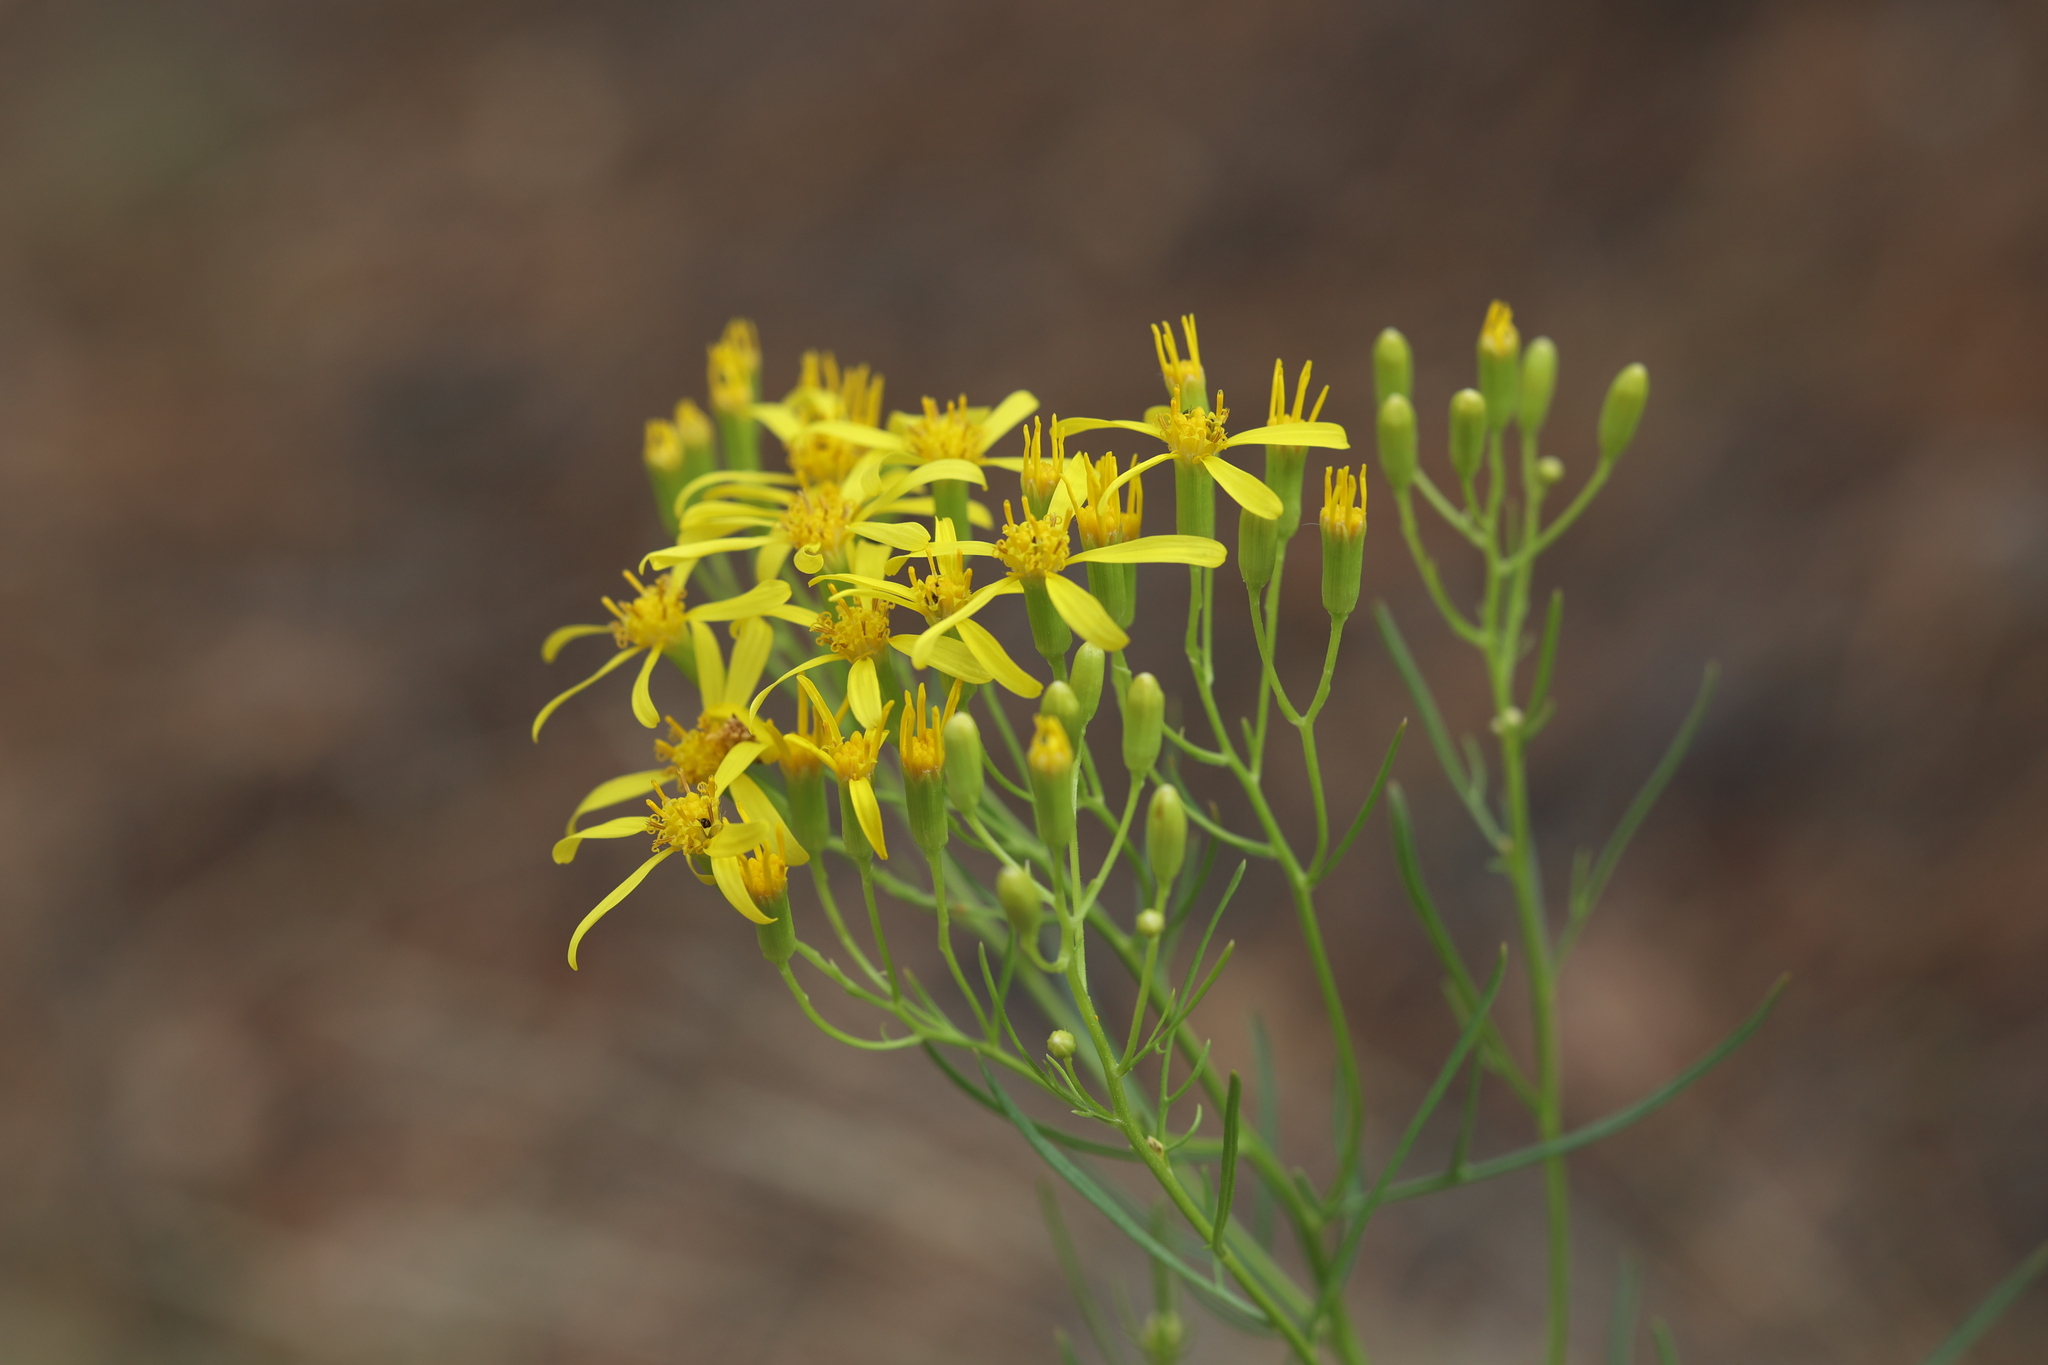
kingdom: Plantae
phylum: Tracheophyta
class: Magnoliopsida
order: Asterales
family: Asteraceae
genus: Senecio
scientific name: Senecio spartioides
